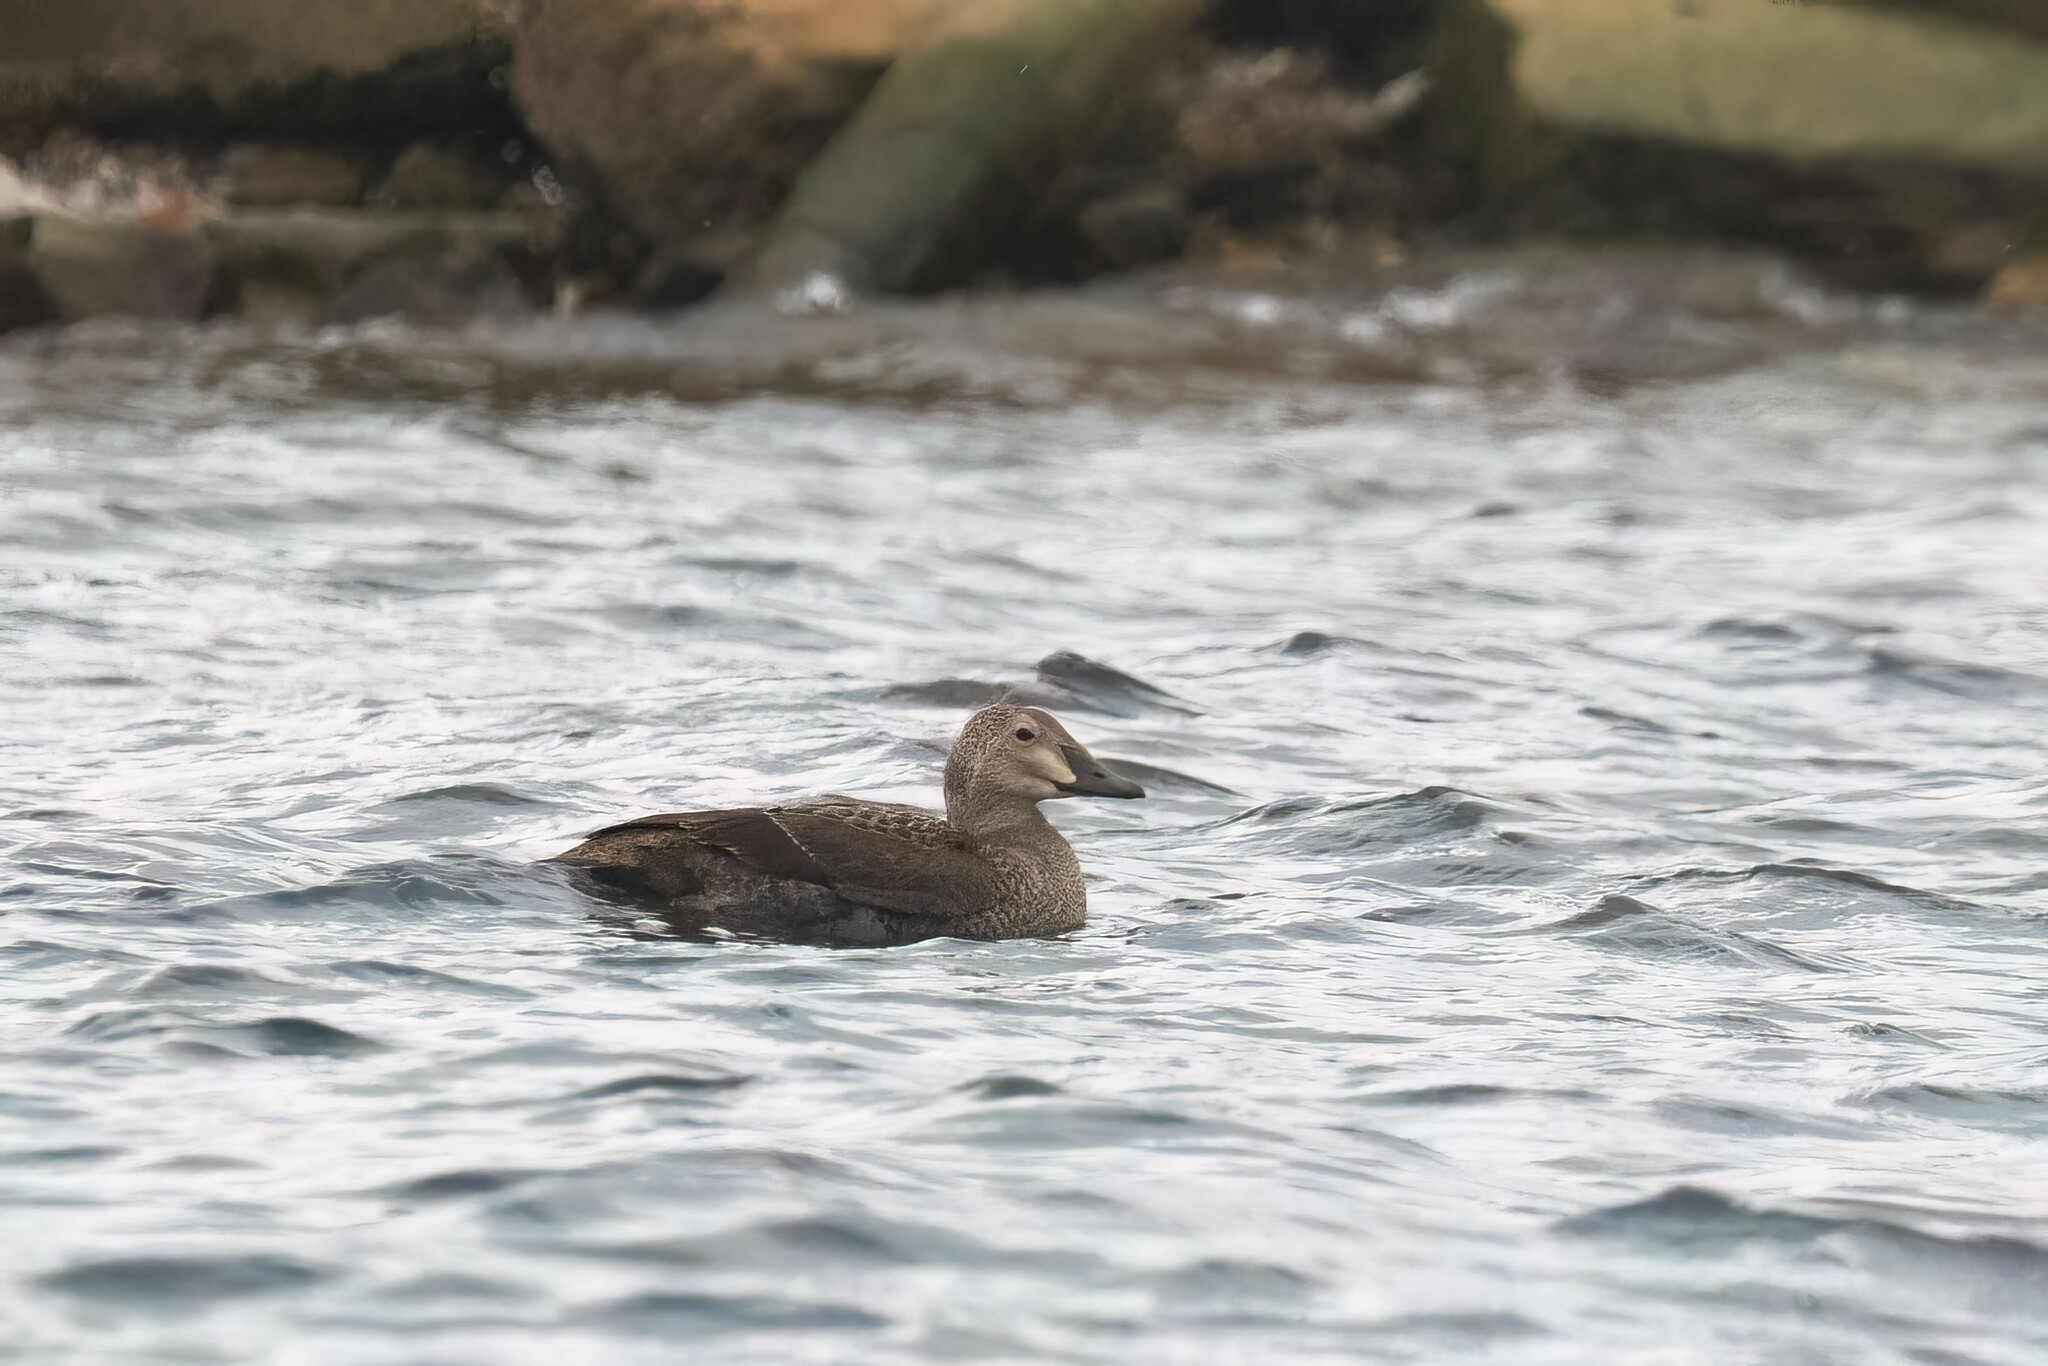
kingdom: Animalia
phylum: Chordata
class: Aves
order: Anseriformes
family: Anatidae
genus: Somateria
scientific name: Somateria spectabilis
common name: King eider
